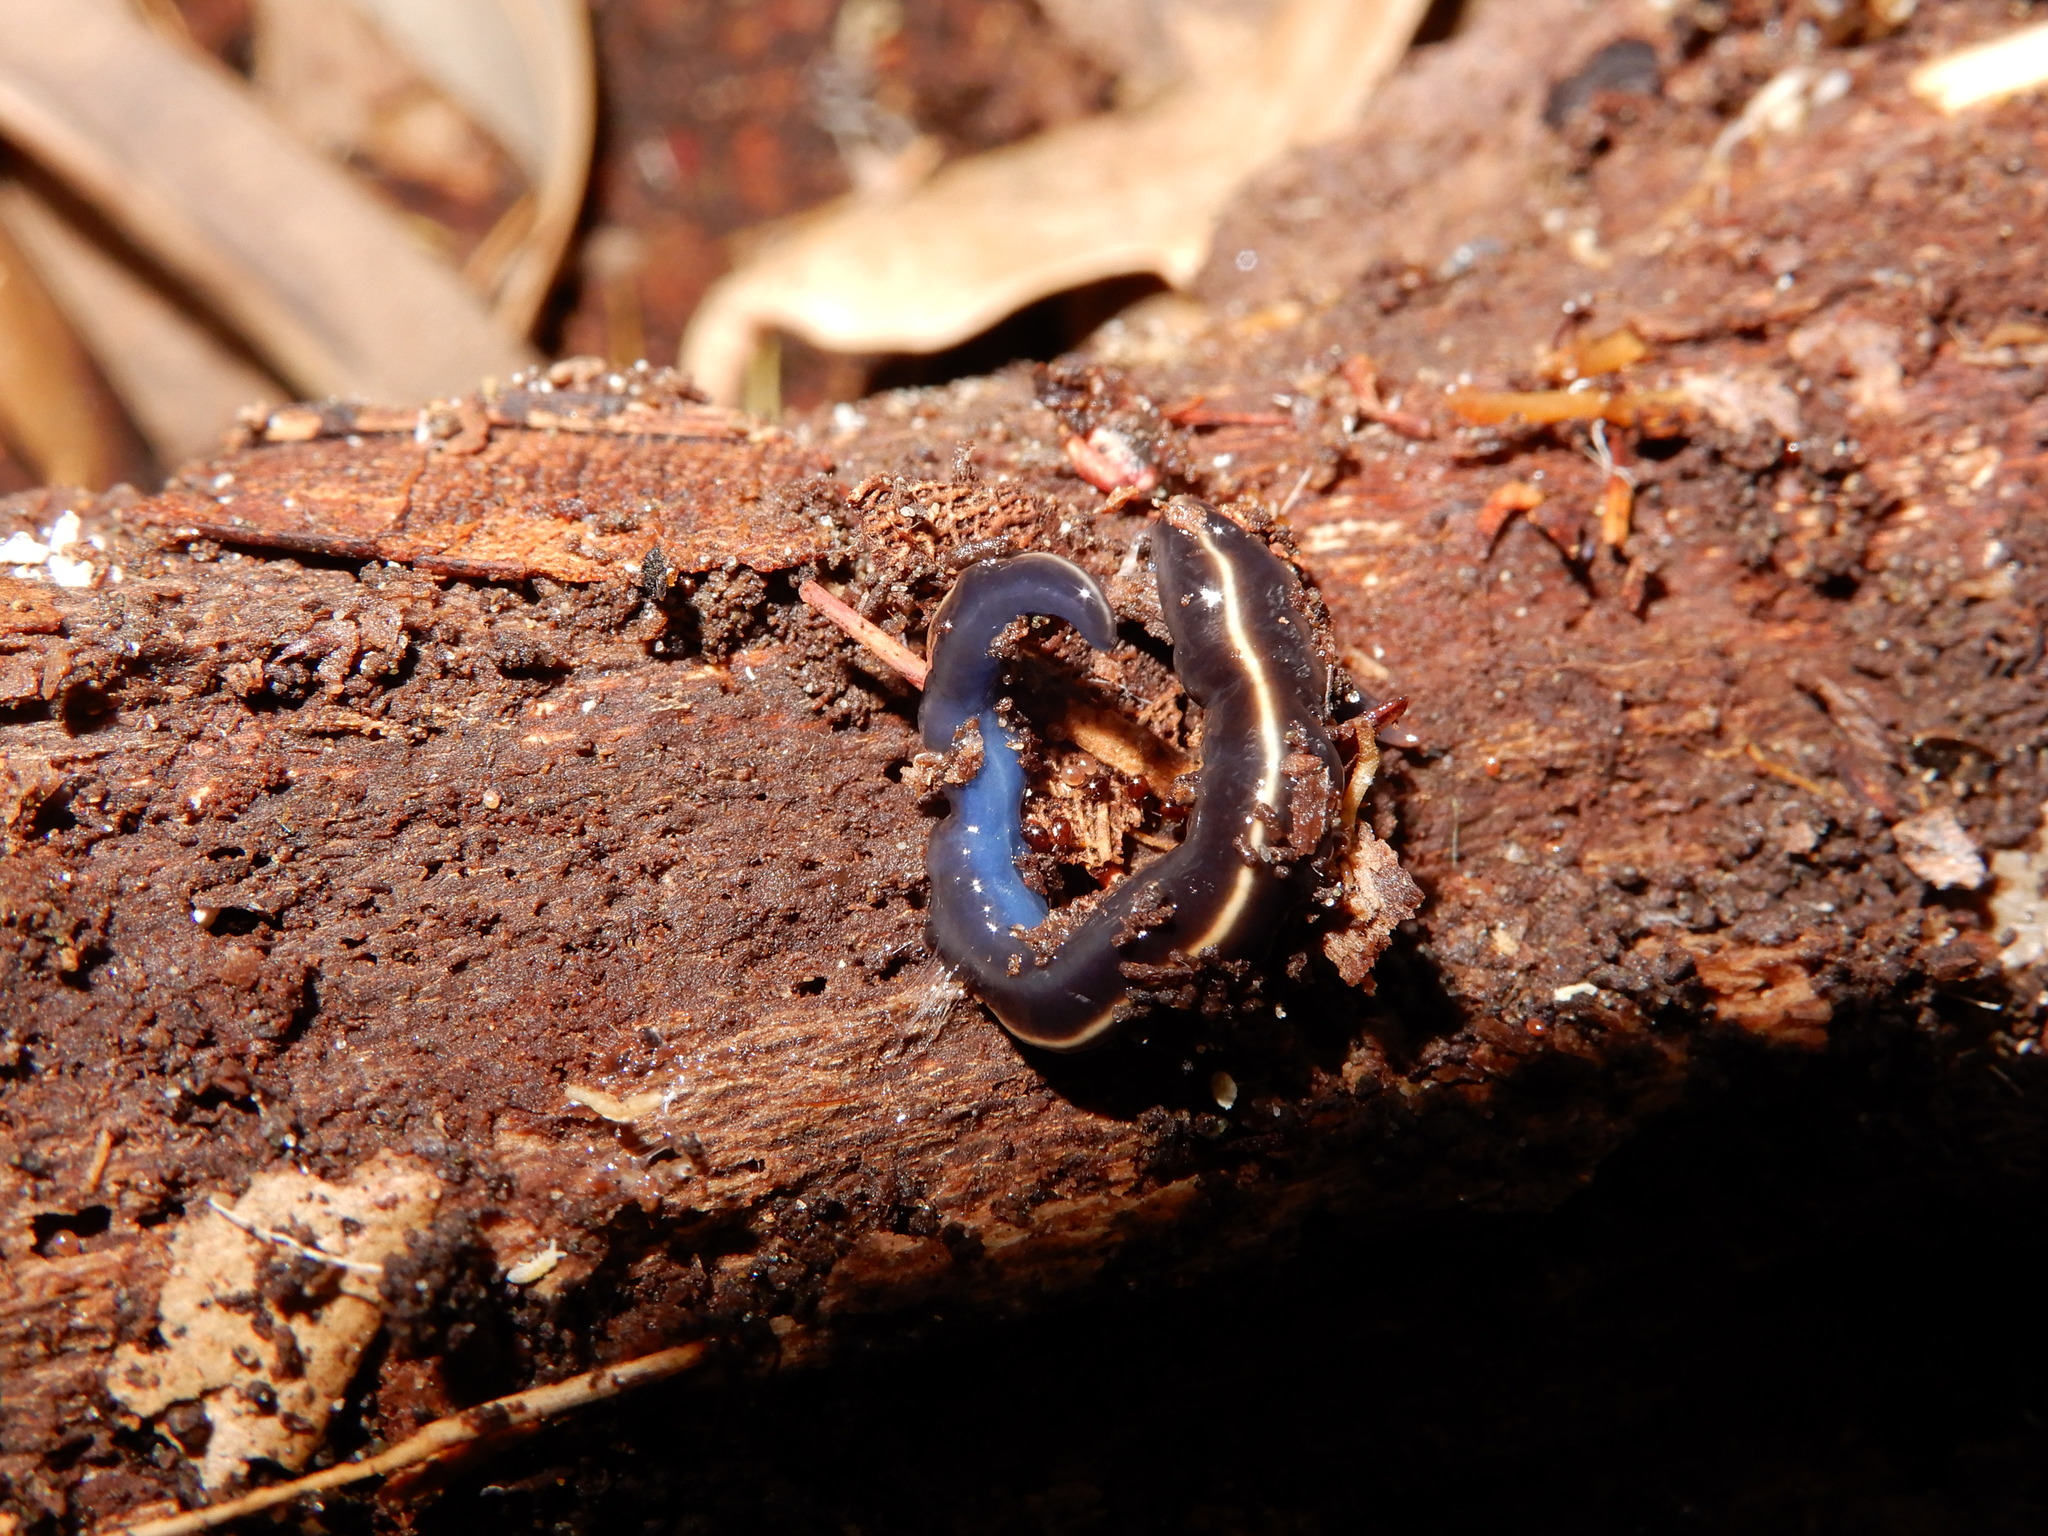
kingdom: Animalia
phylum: Platyhelminthes
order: Tricladida
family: Geoplanidae
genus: Caenoplana
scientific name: Caenoplana coerulea
